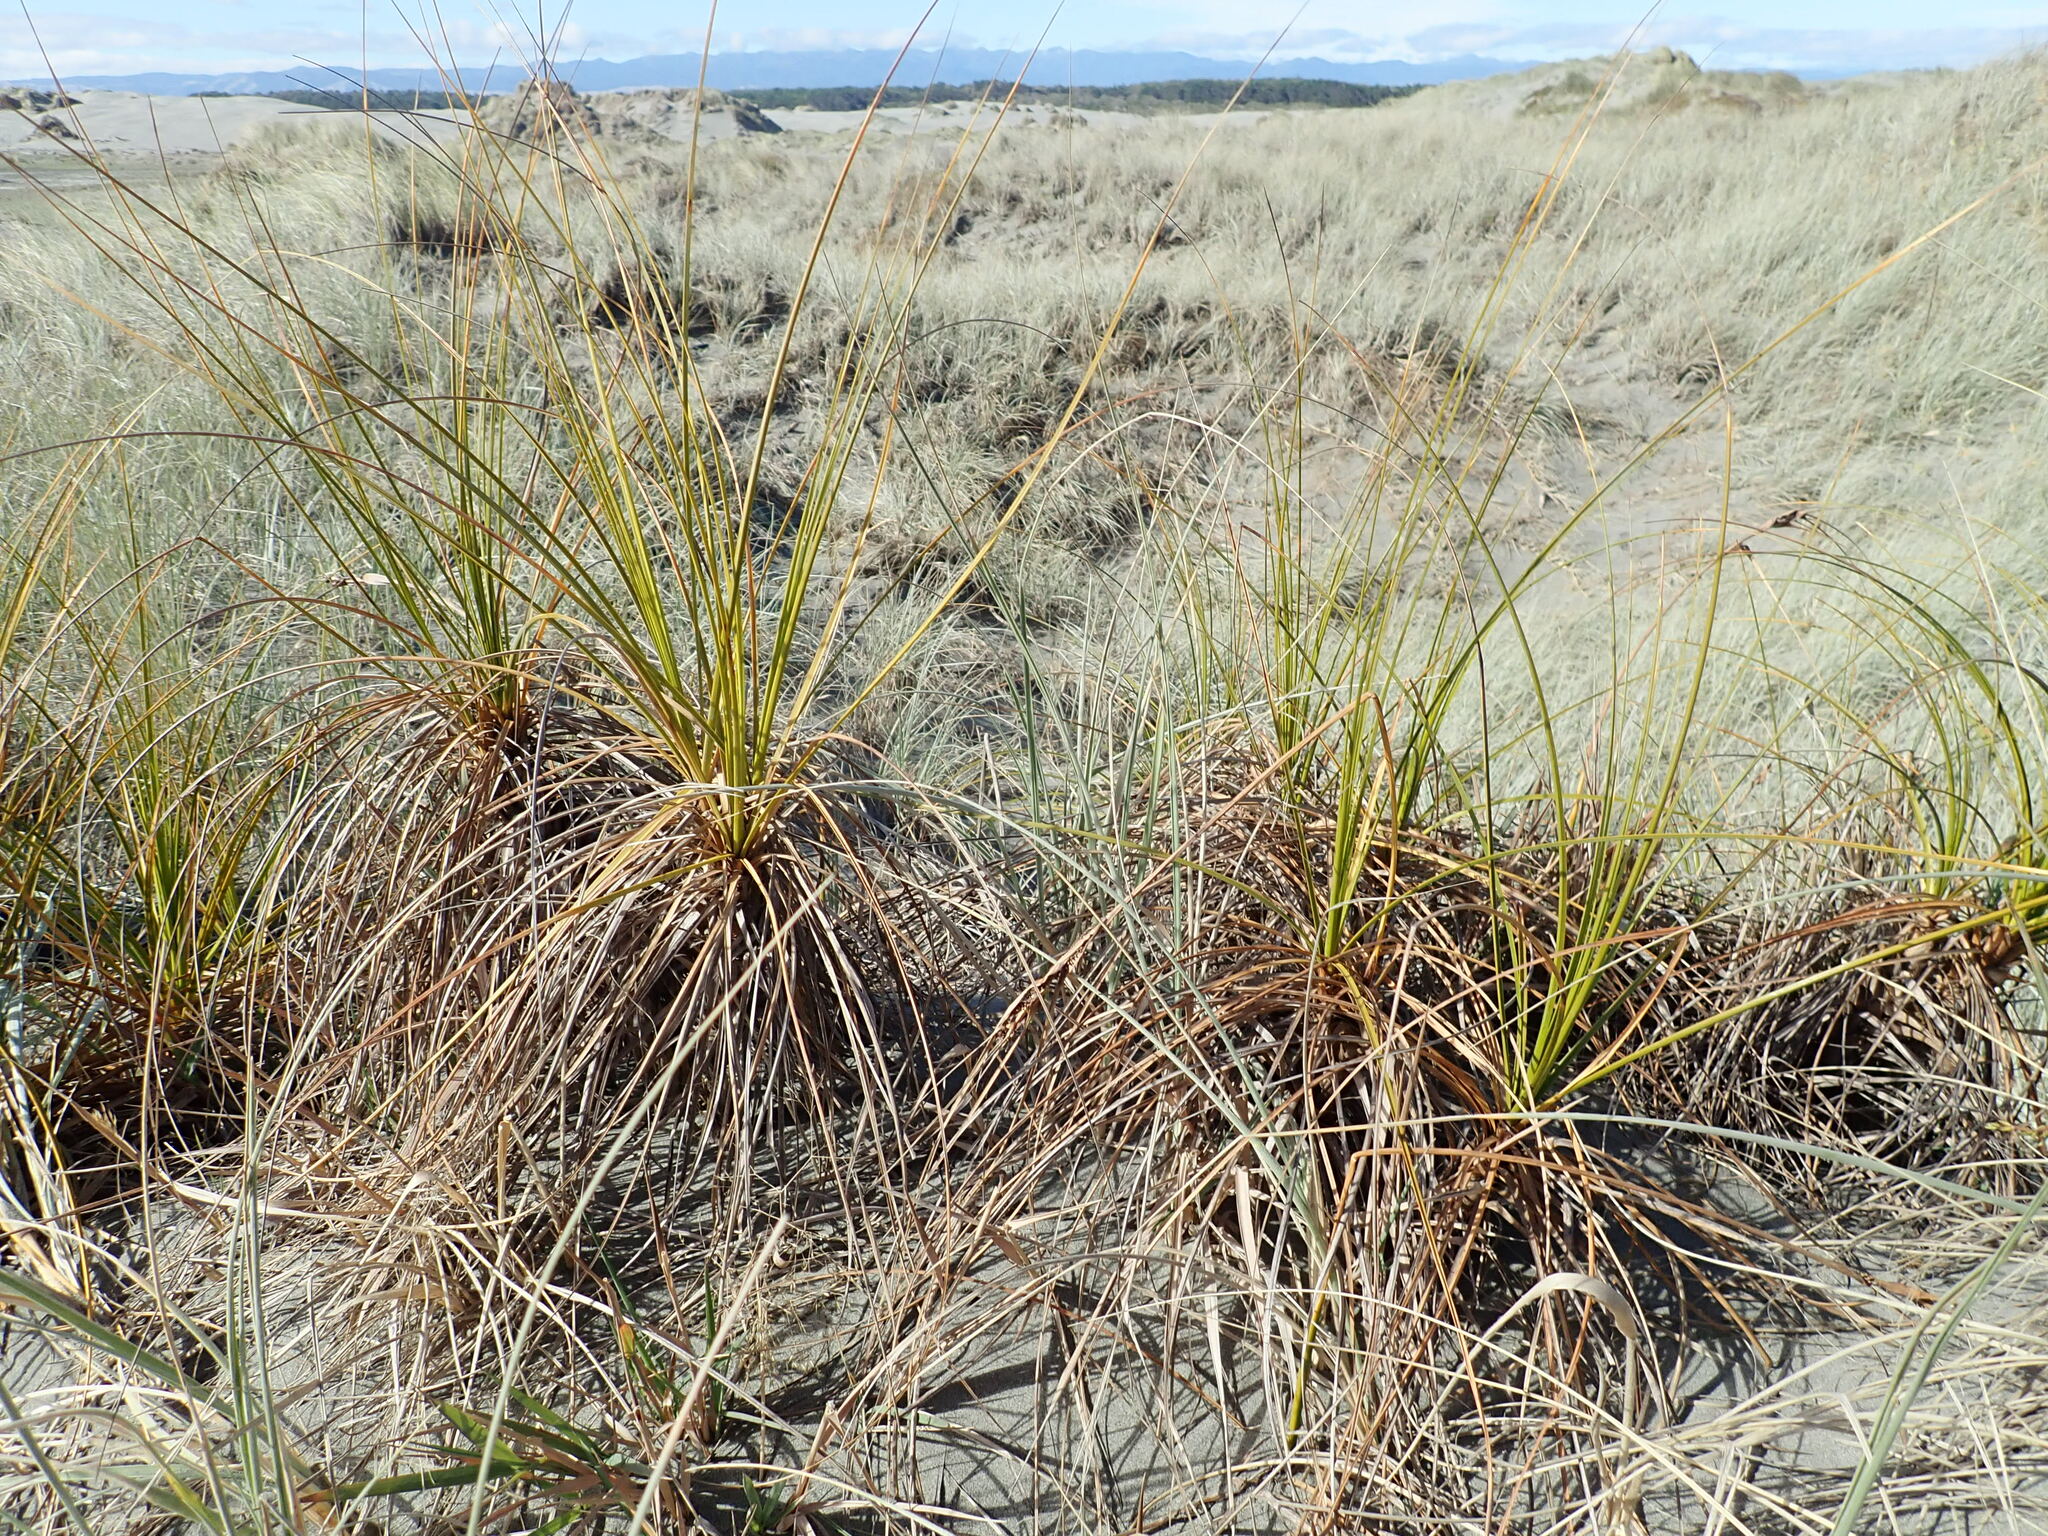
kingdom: Plantae
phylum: Tracheophyta
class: Liliopsida
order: Poales
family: Cyperaceae
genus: Ficinia
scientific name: Ficinia spiralis
